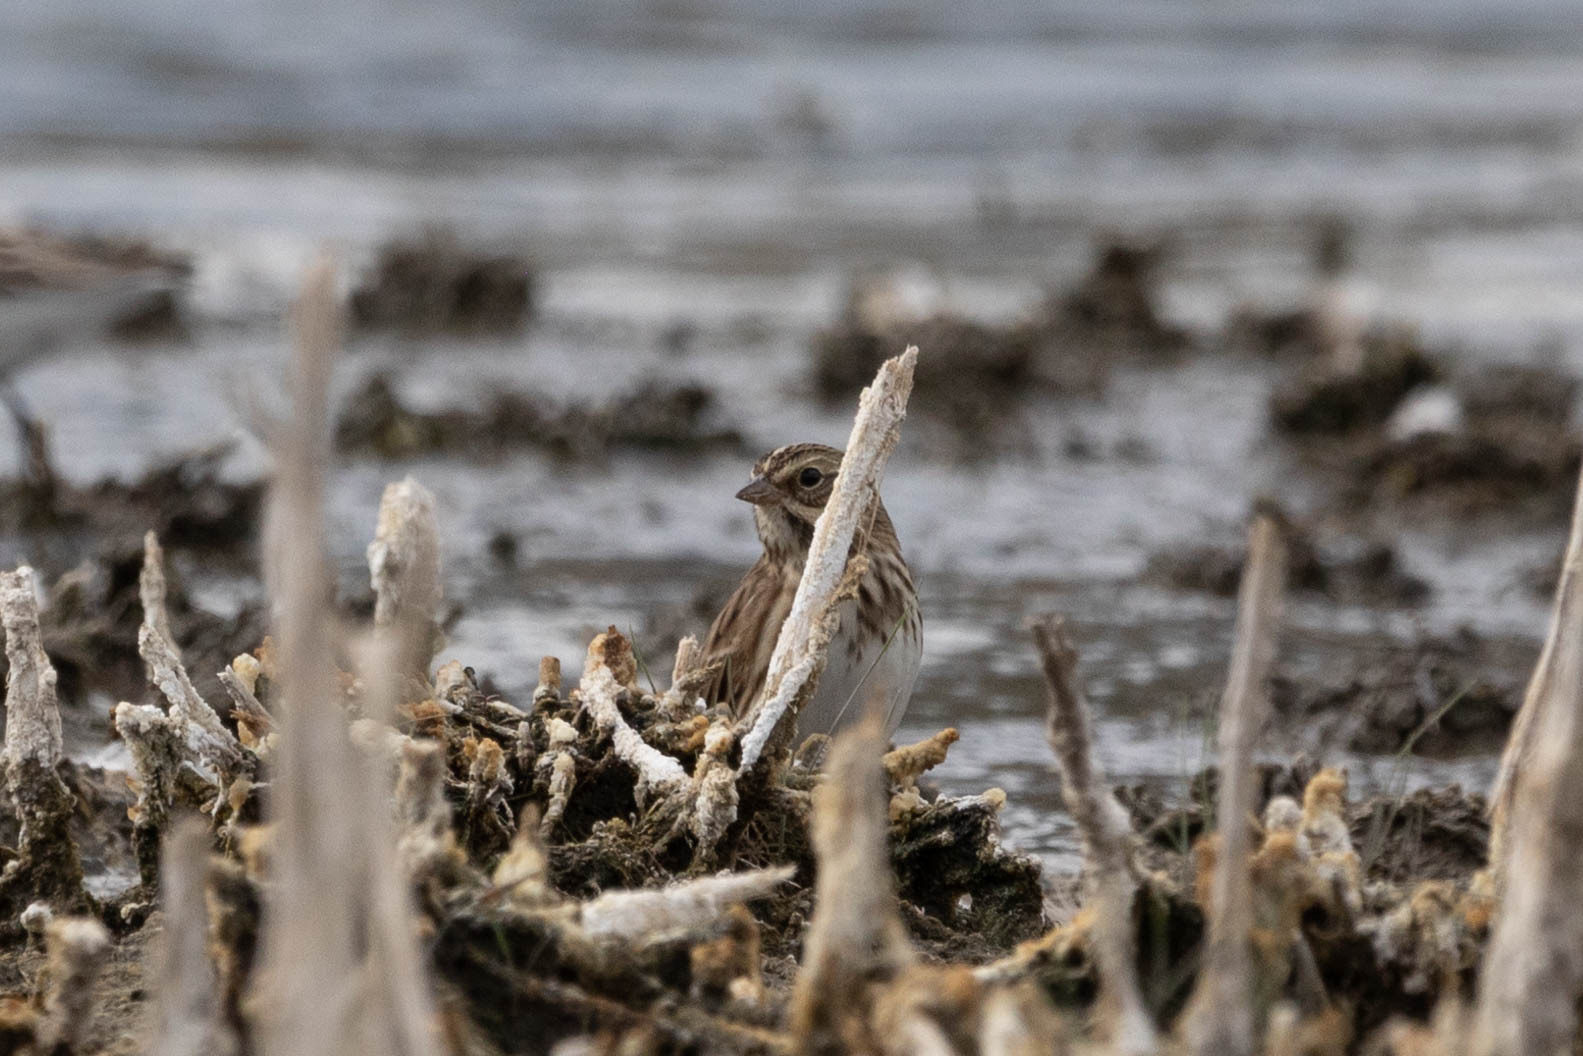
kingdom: Animalia
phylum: Chordata
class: Aves
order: Passeriformes
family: Passerellidae
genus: Passerculus
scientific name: Passerculus sandwichensis
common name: Savannah sparrow
